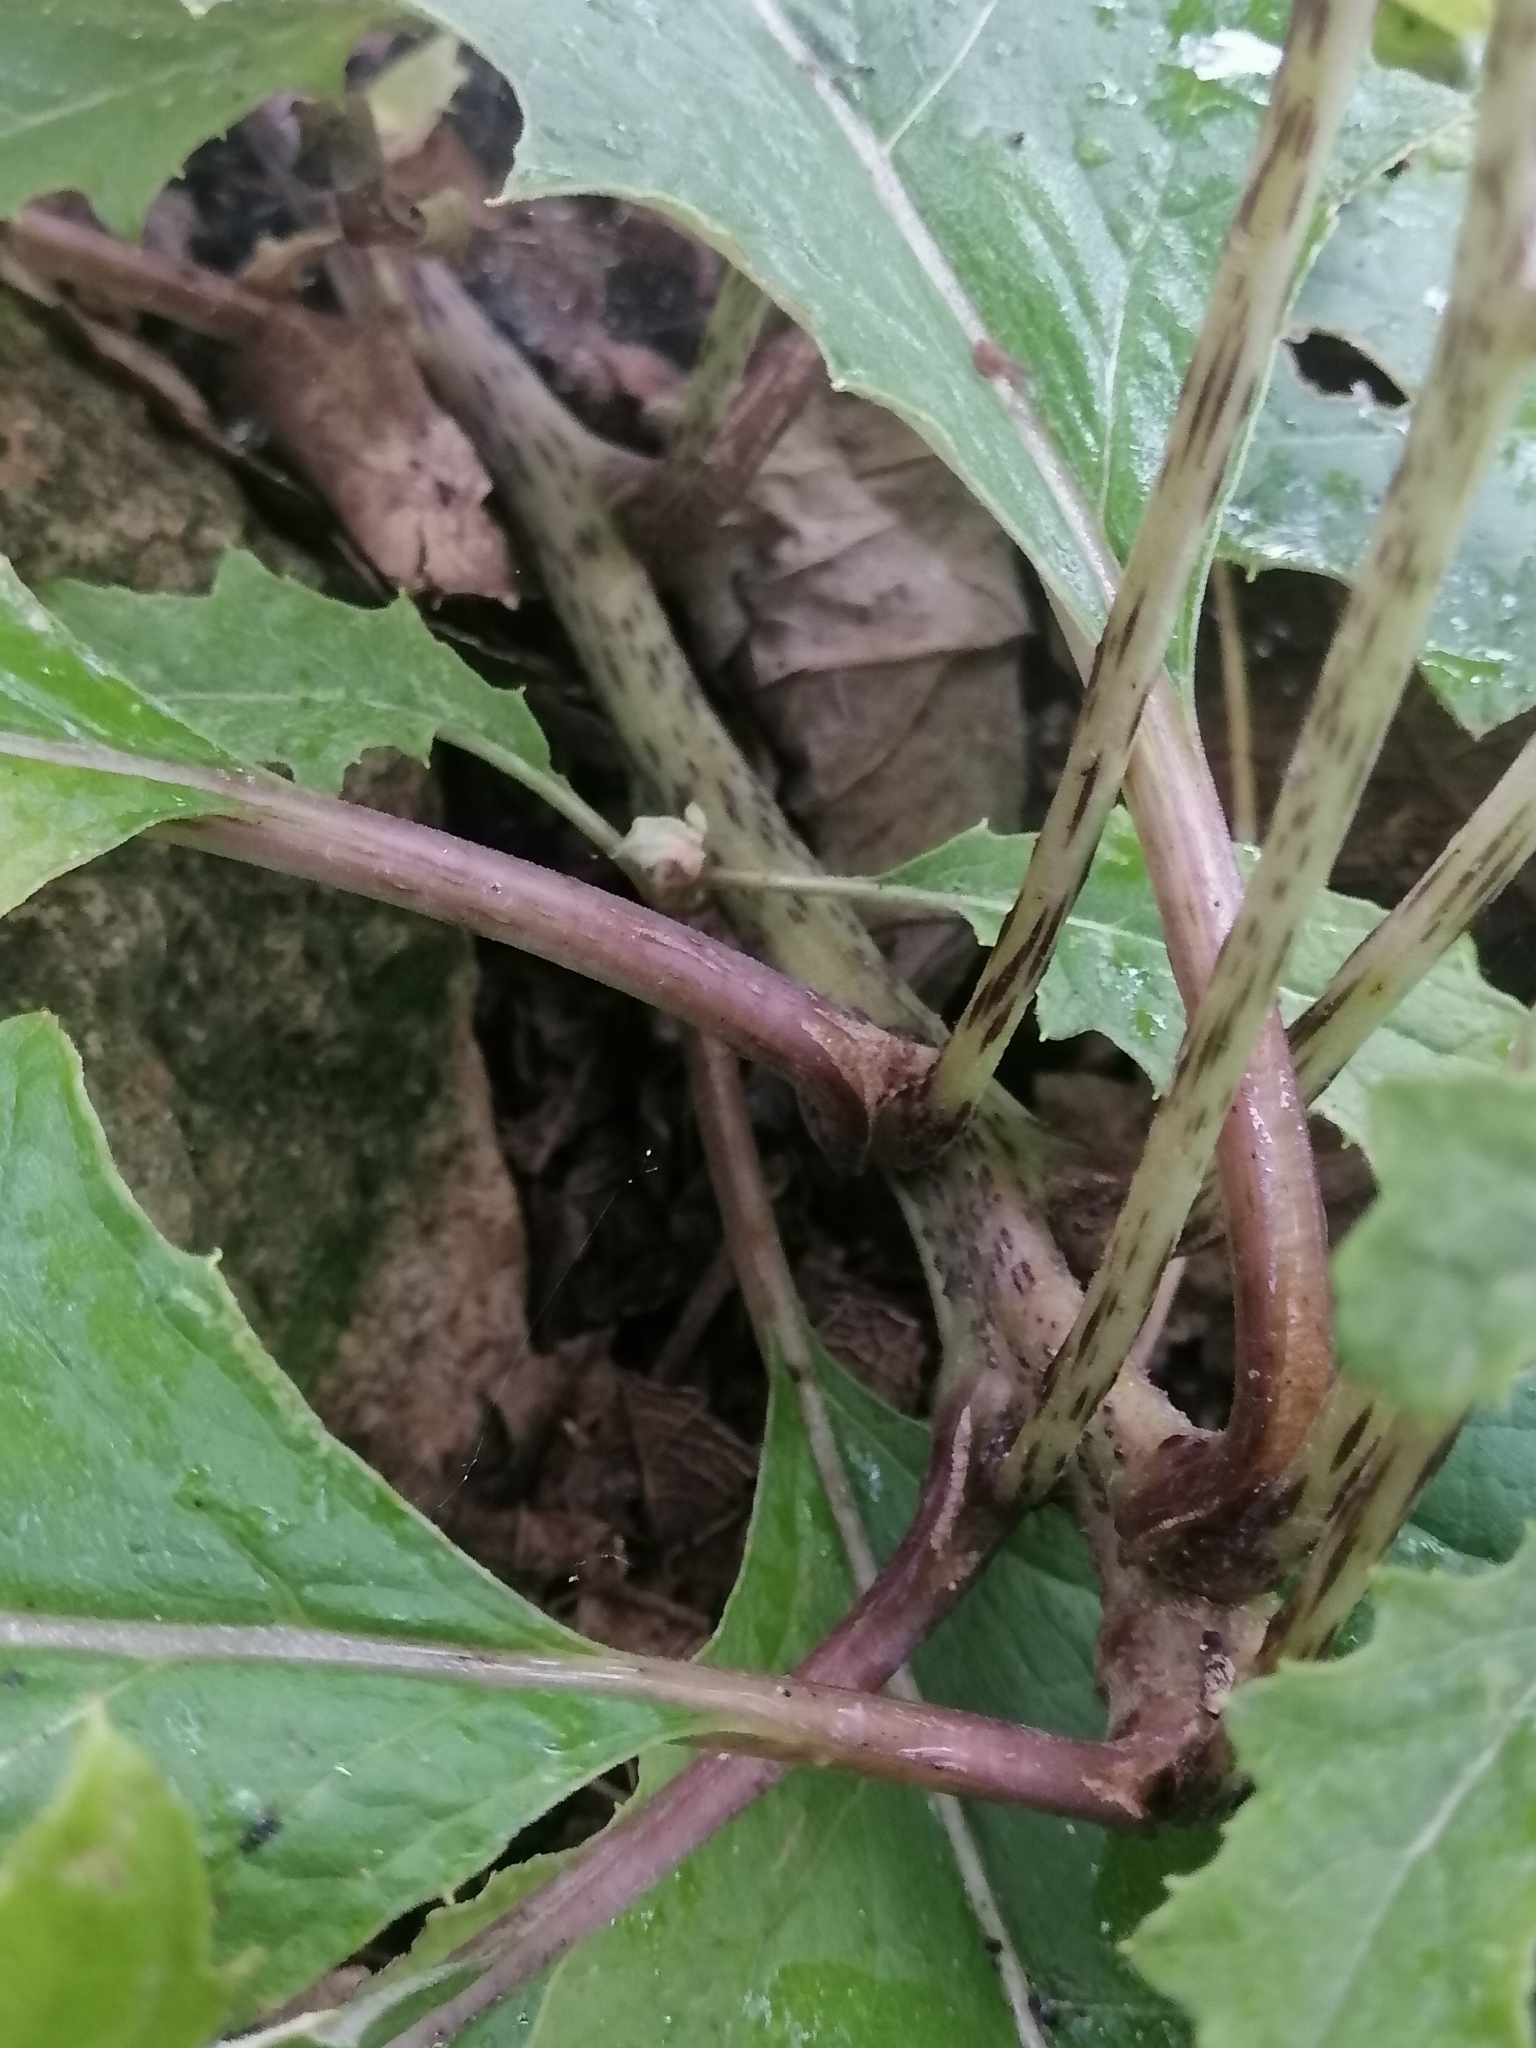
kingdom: Plantae
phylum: Tracheophyta
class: Magnoliopsida
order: Asterales
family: Asteraceae
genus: Roldana
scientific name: Roldana candicans
